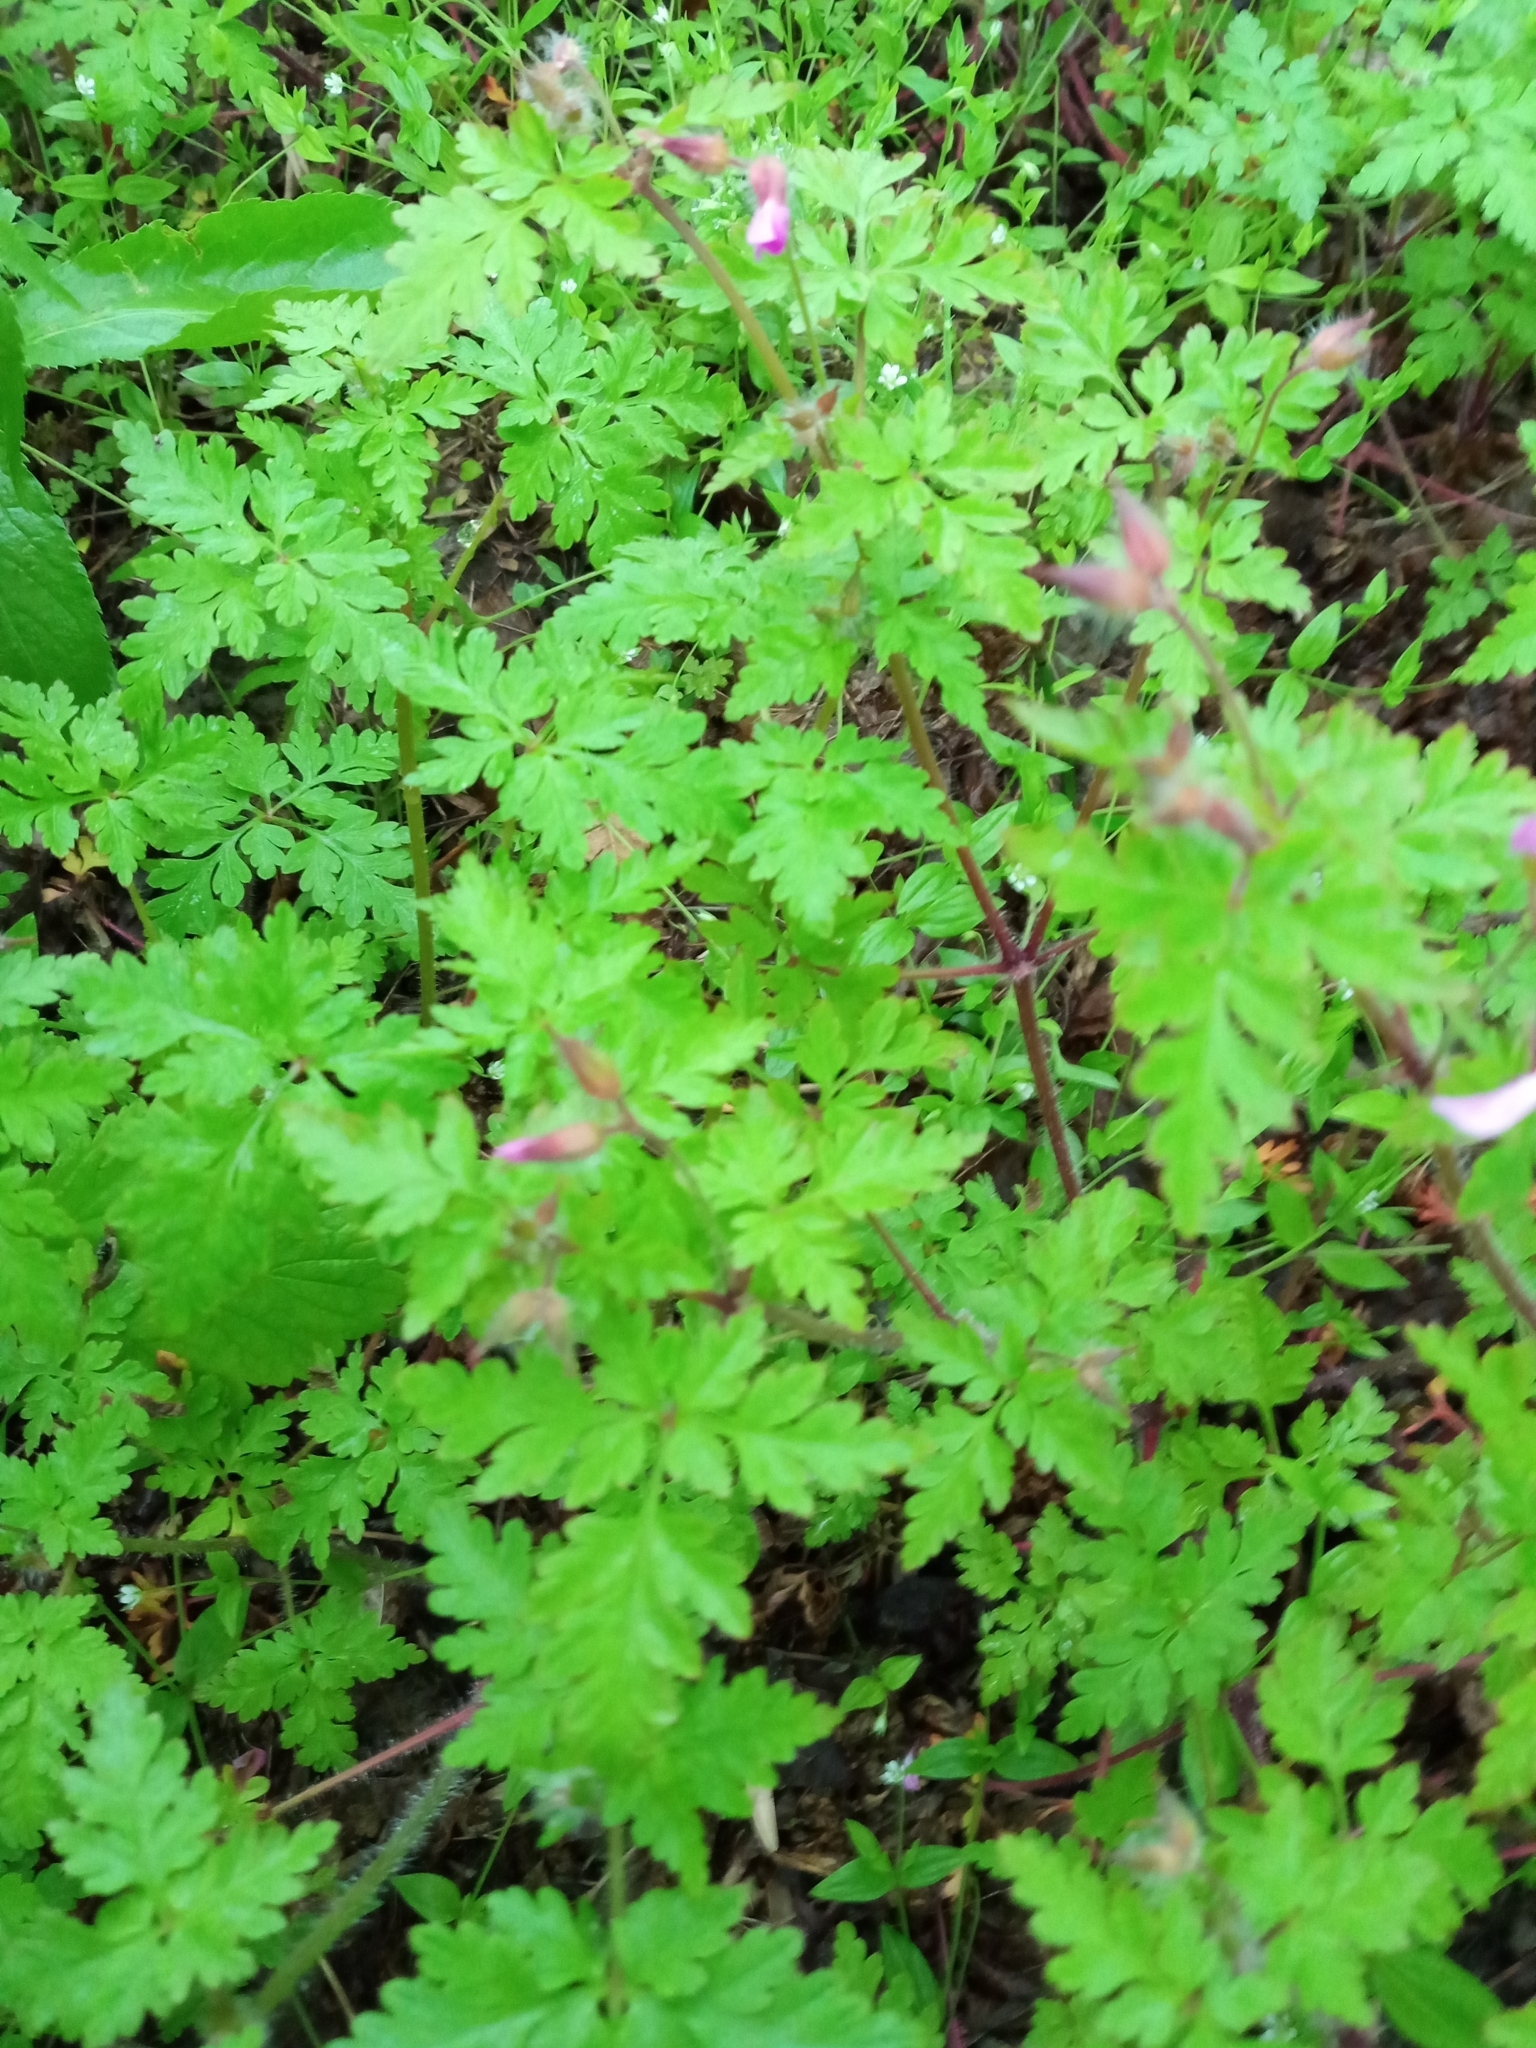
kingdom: Plantae
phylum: Tracheophyta
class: Magnoliopsida
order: Geraniales
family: Geraniaceae
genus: Geranium
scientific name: Geranium robertianum
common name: Herb-robert
